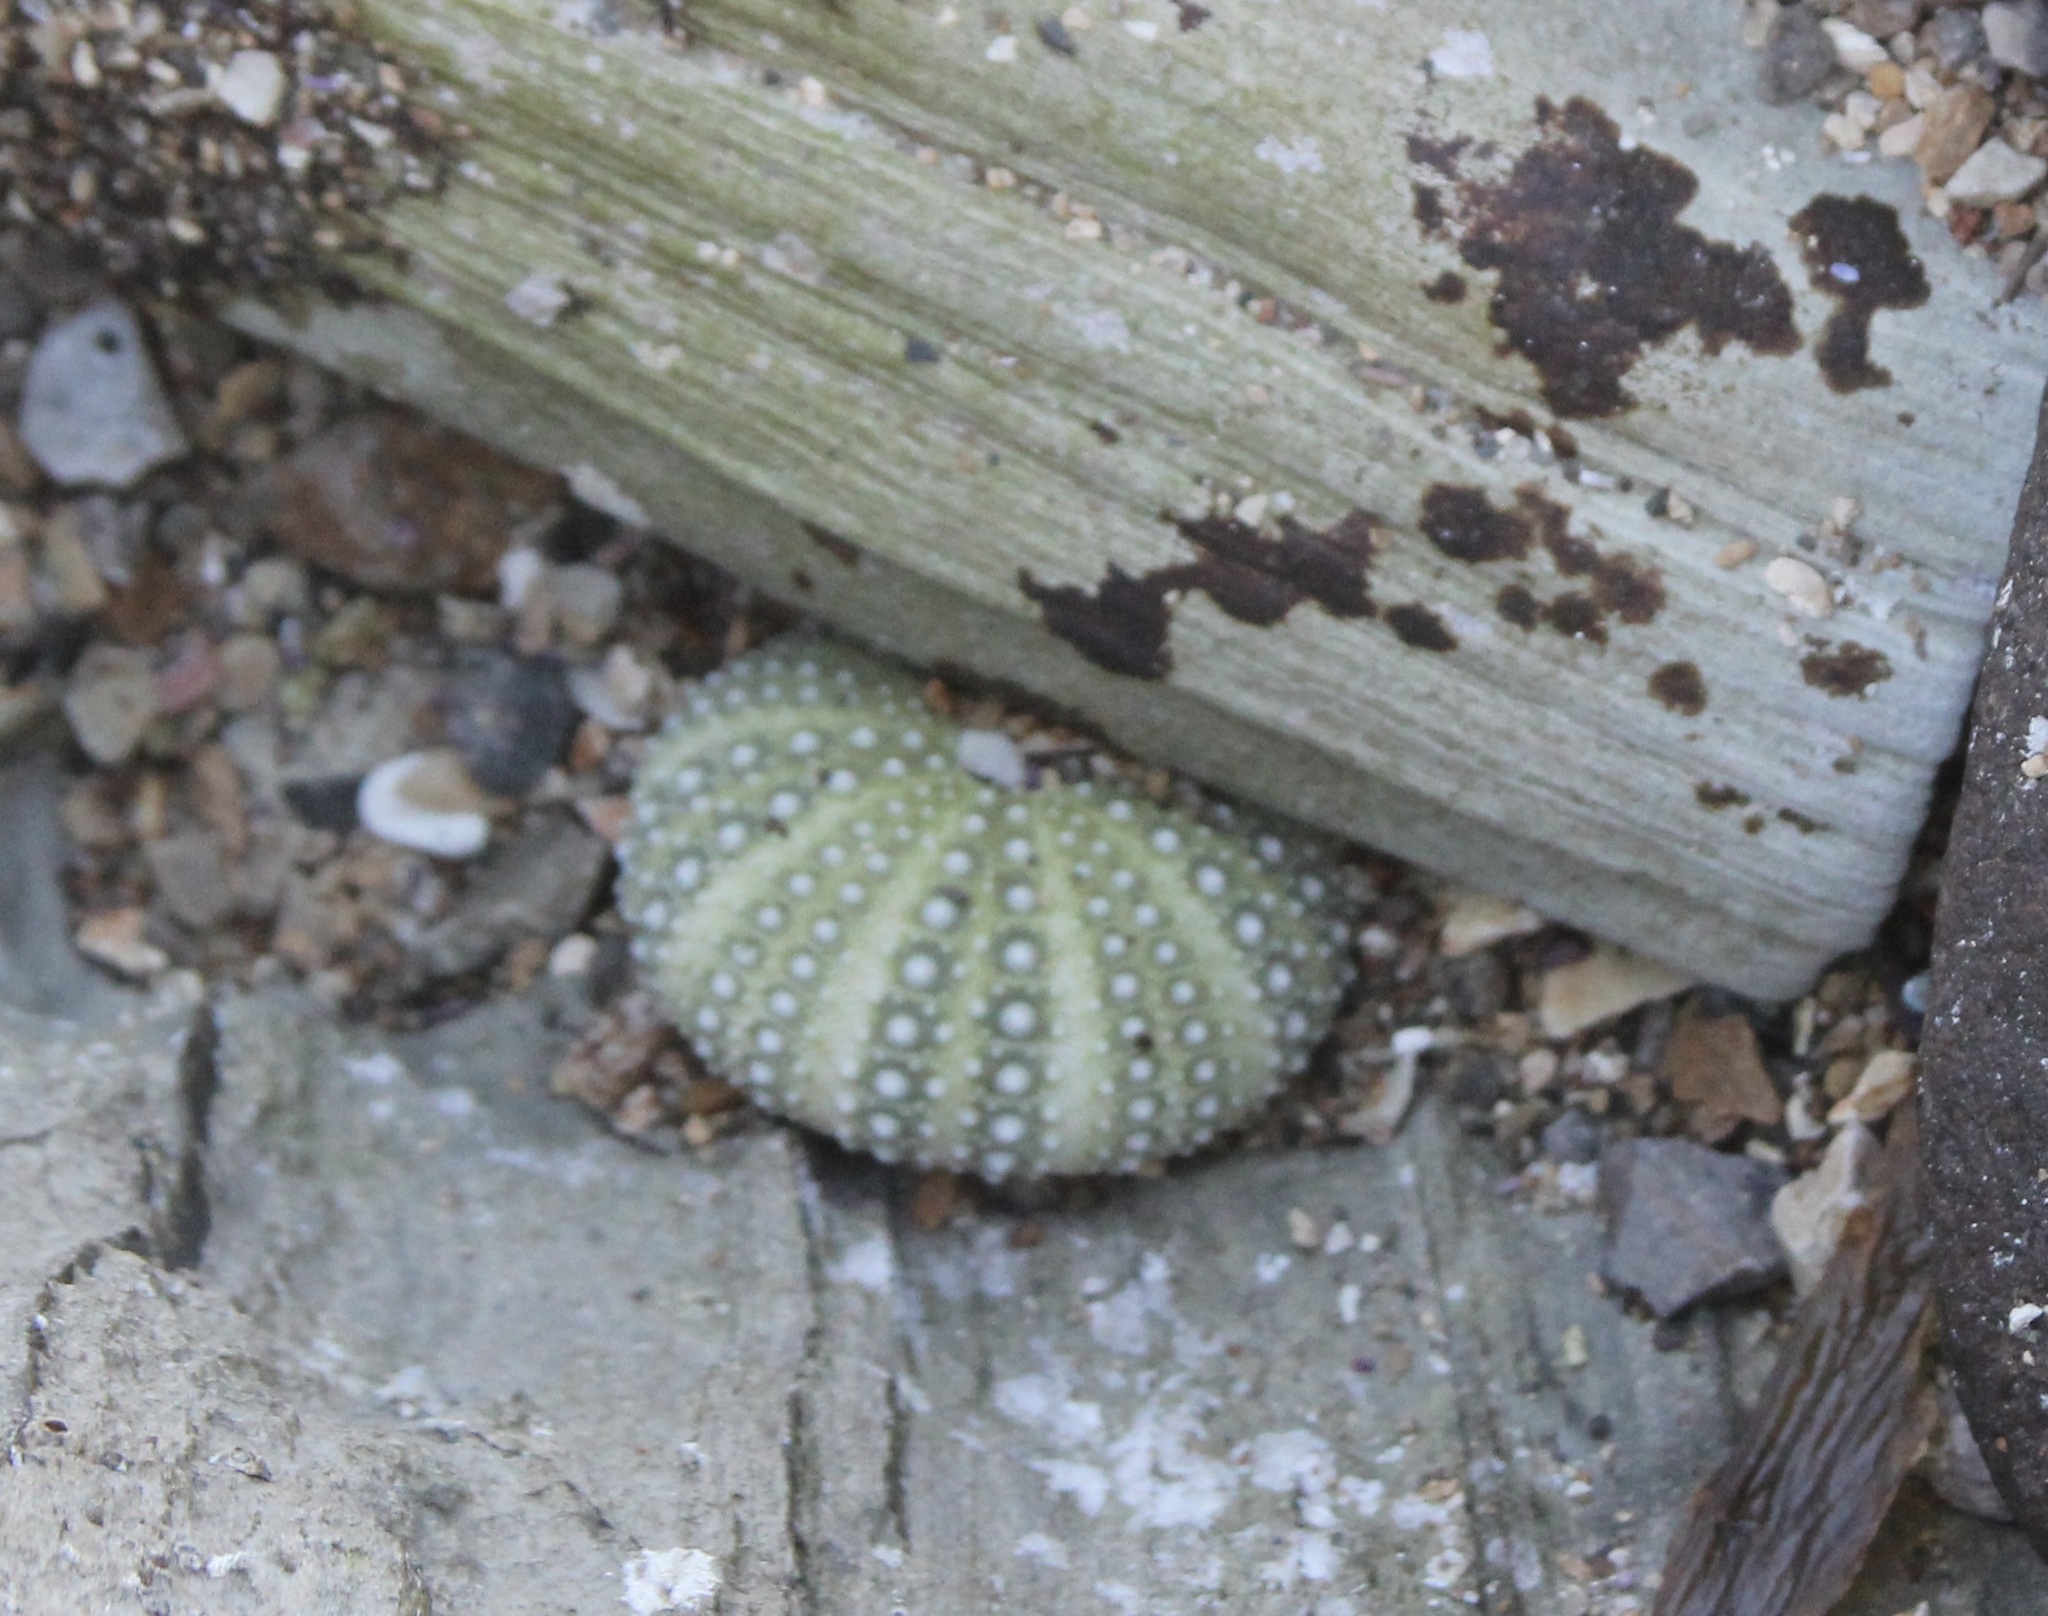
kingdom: Animalia
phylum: Echinodermata
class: Echinoidea
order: Camarodonta
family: Strongylocentrotidae
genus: Strongylocentrotus
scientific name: Strongylocentrotus purpuratus
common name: Purple sea urchin
